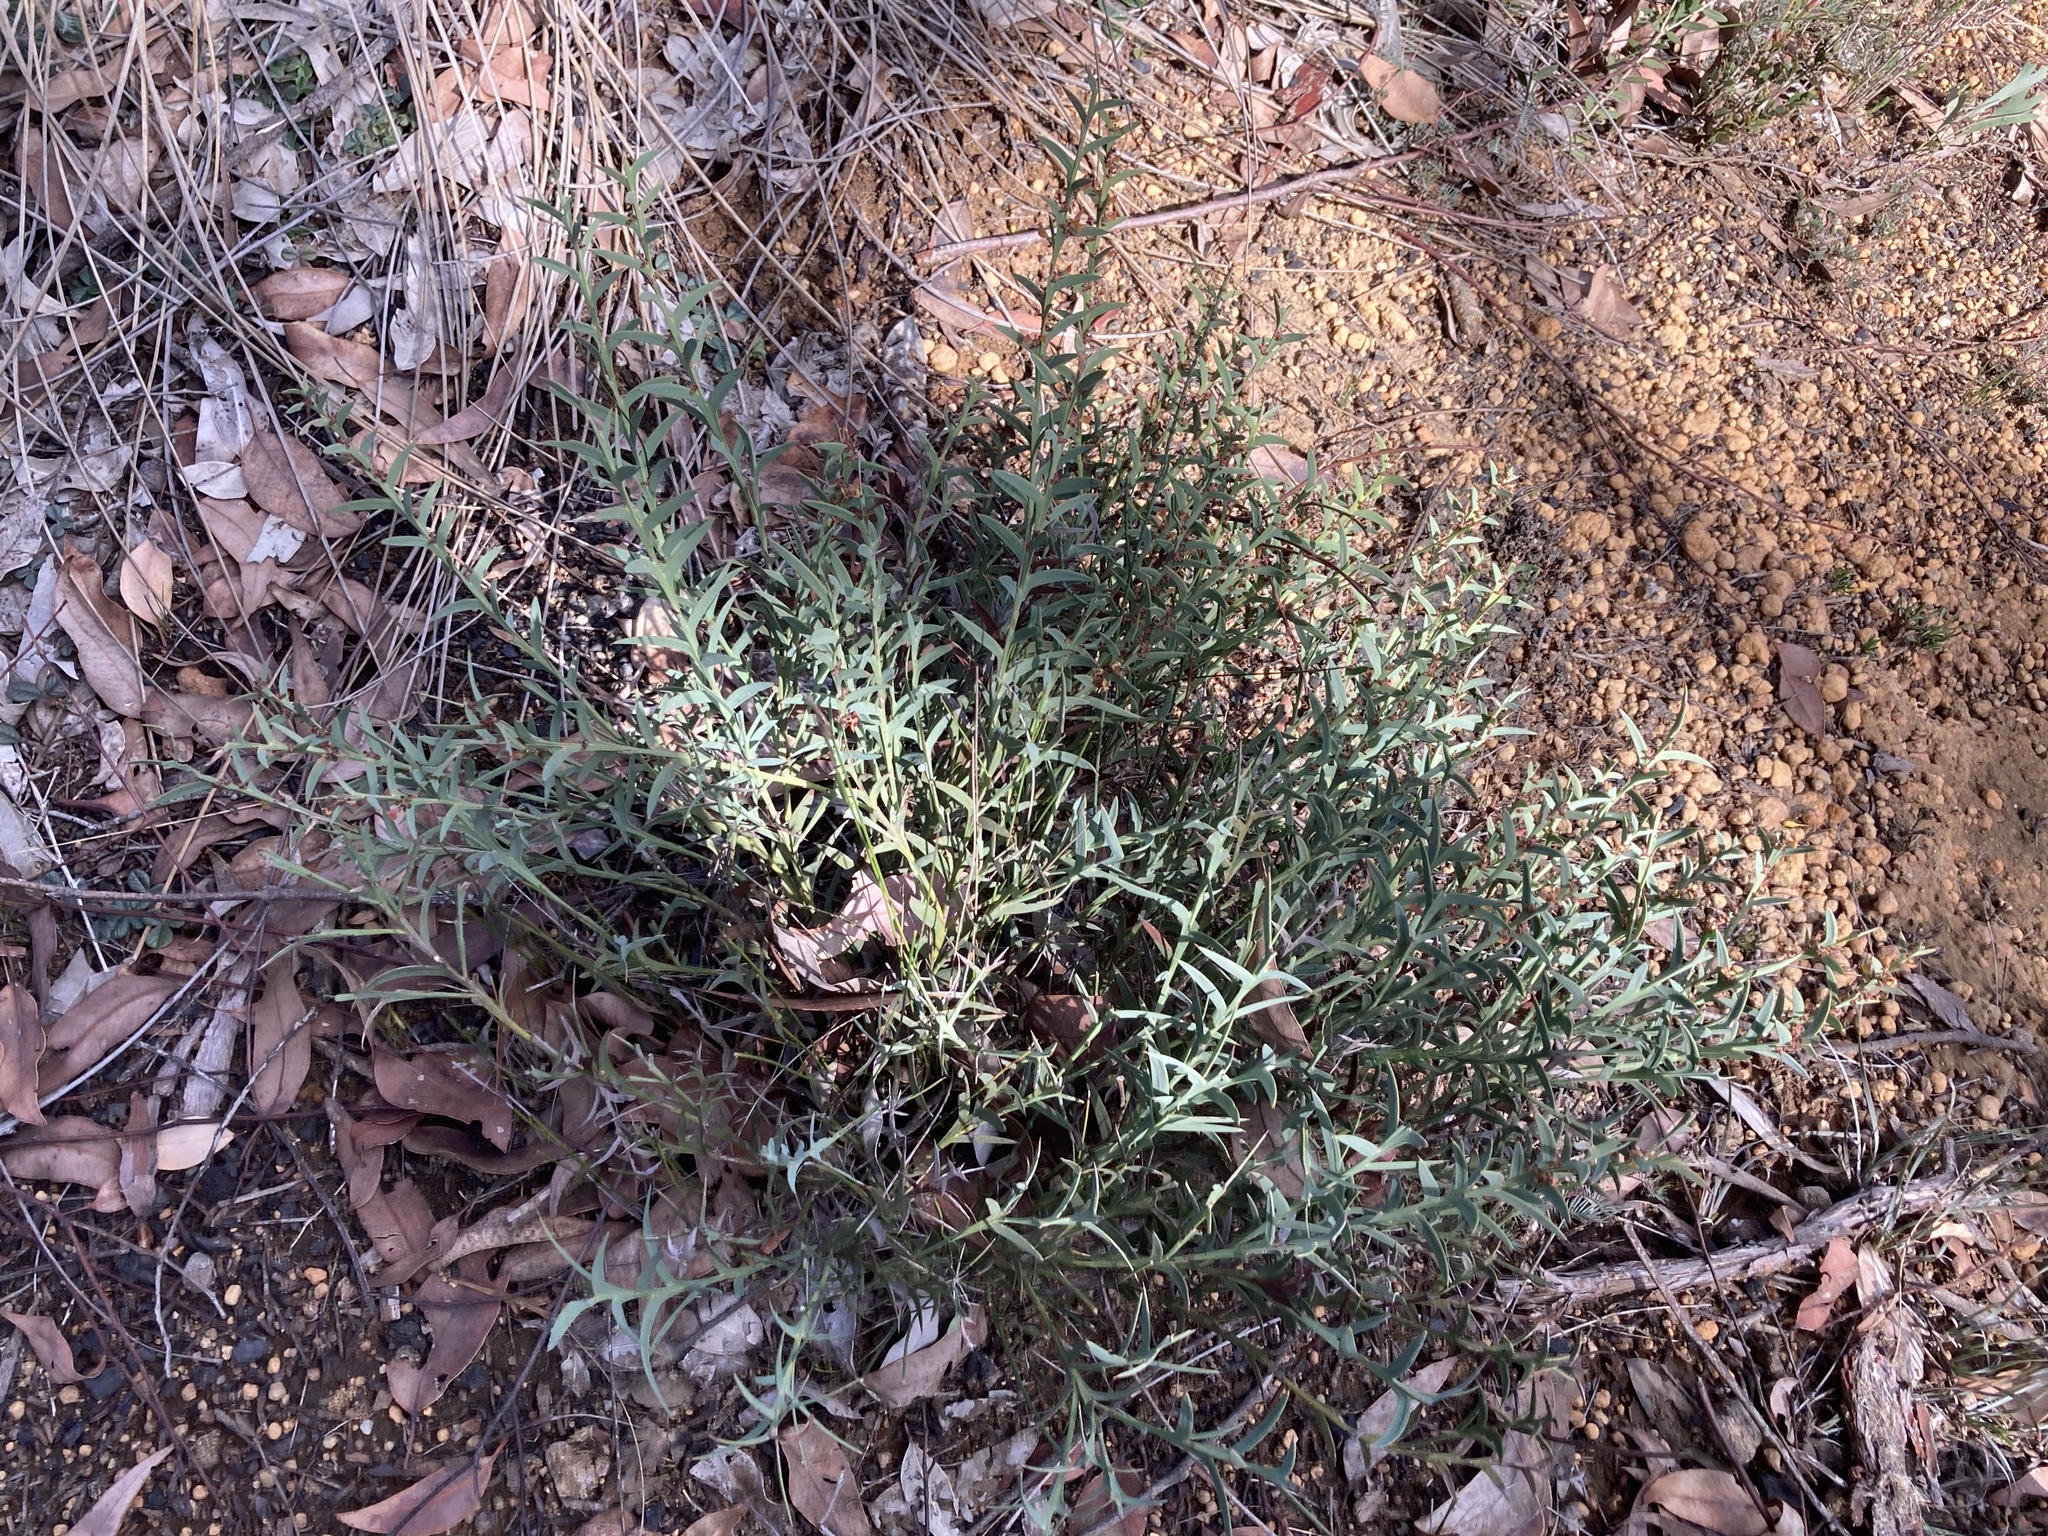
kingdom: Plantae
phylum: Tracheophyta
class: Magnoliopsida
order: Fabales
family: Fabaceae
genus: Daviesia
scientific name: Daviesia decurrens
